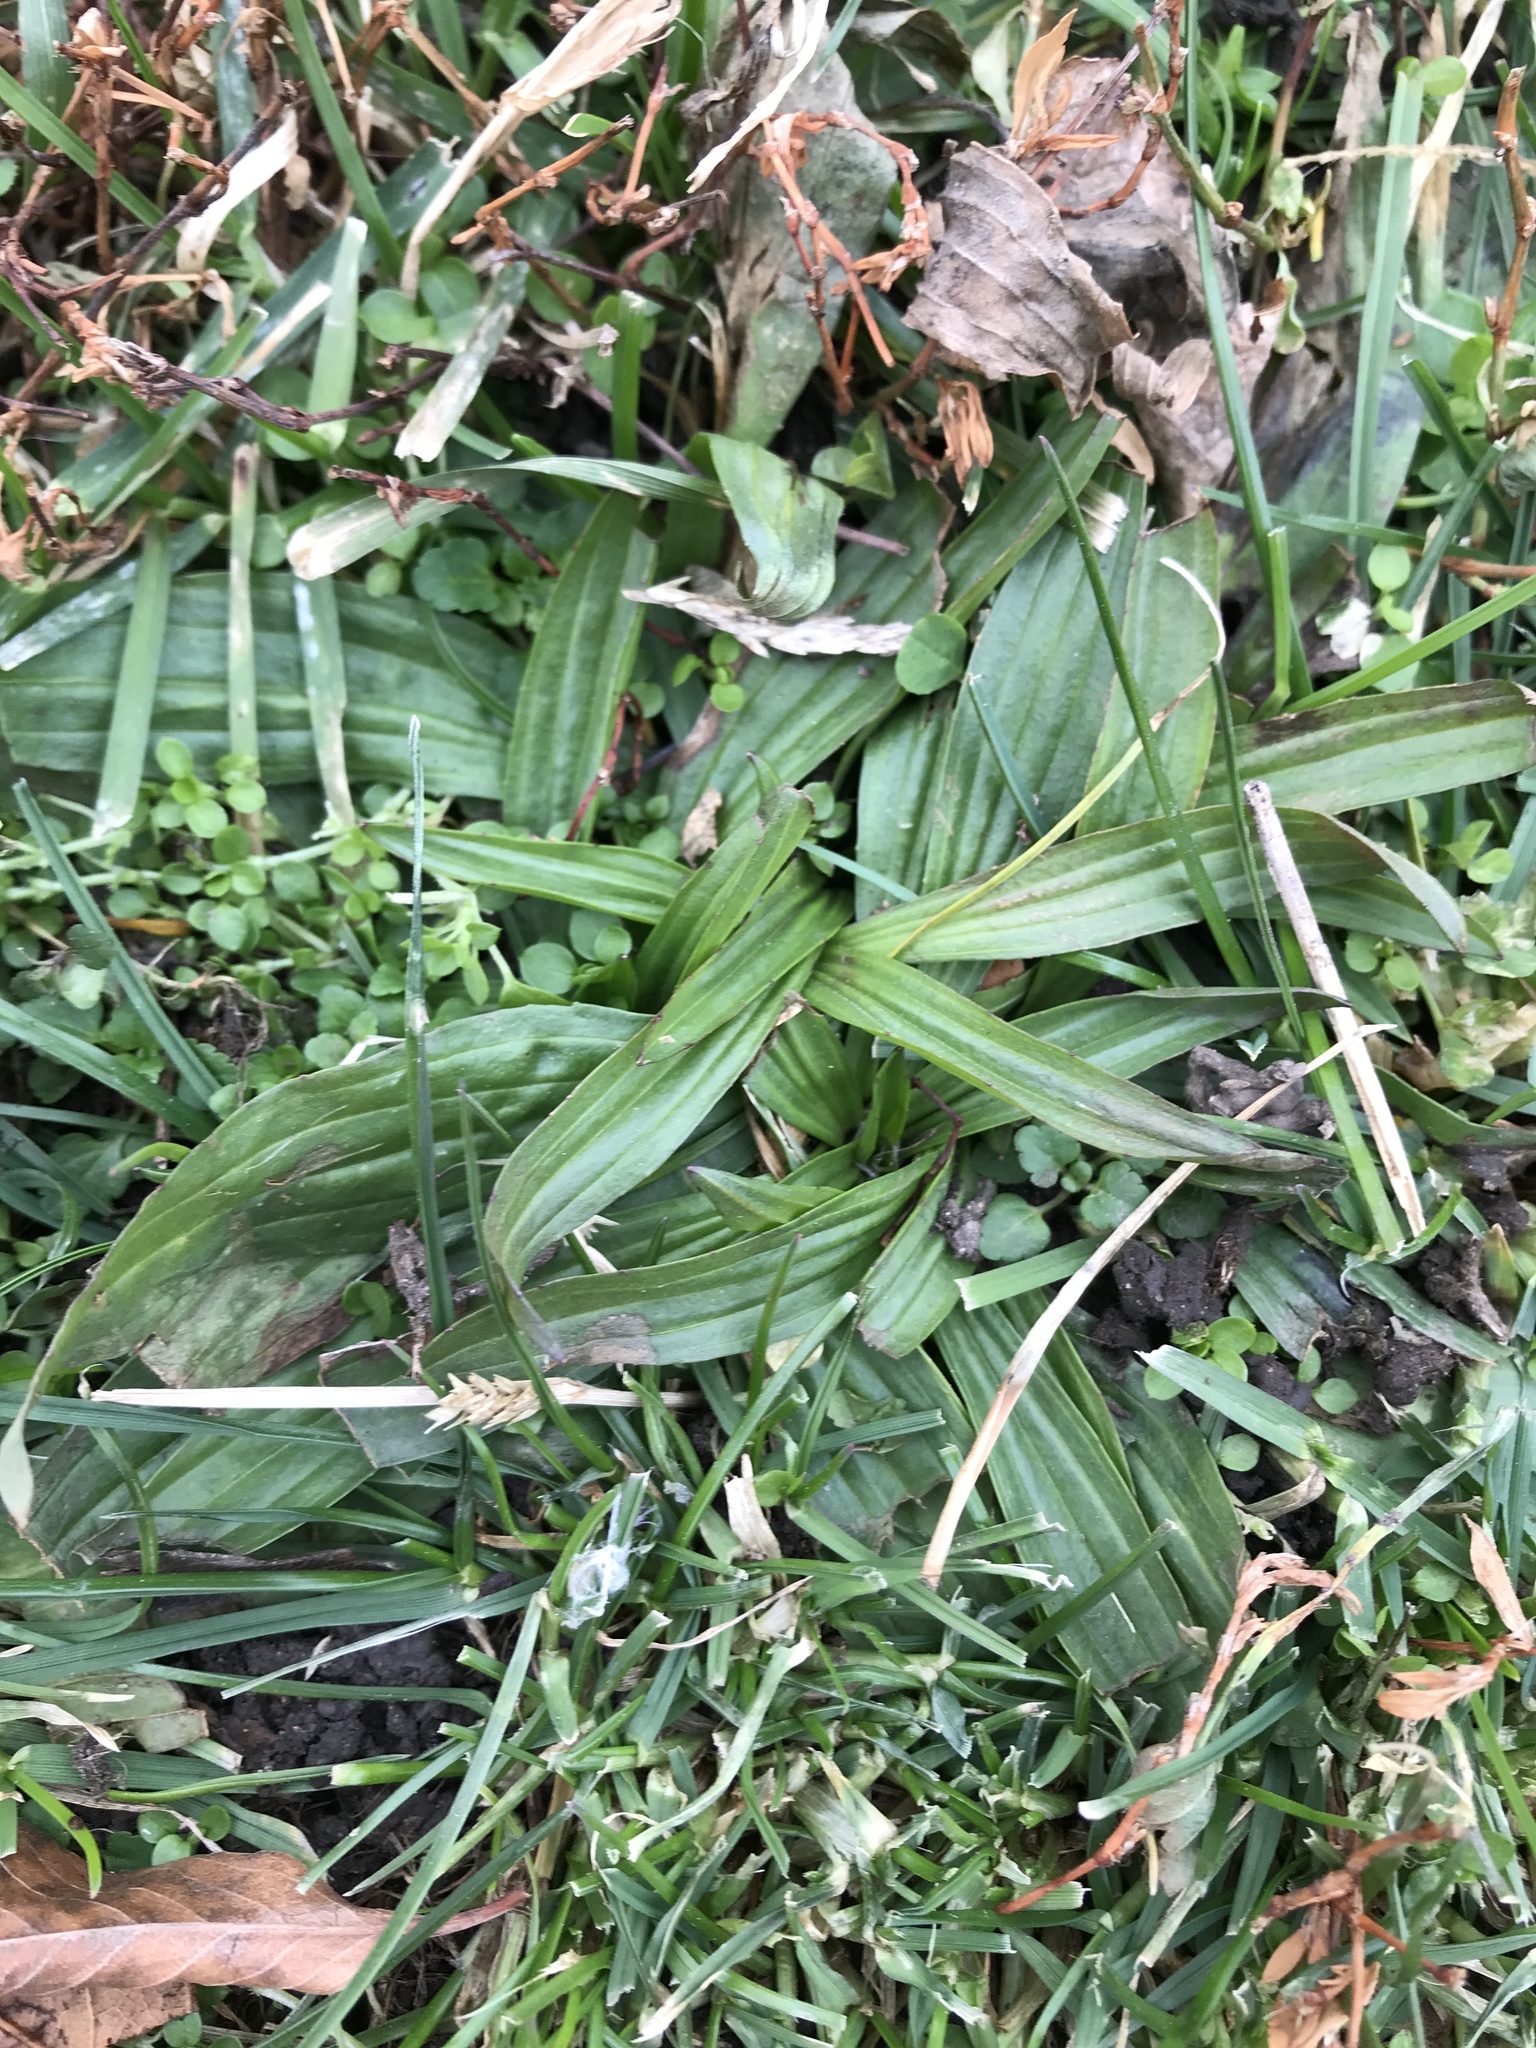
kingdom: Plantae
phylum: Tracheophyta
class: Magnoliopsida
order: Lamiales
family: Plantaginaceae
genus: Plantago
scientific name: Plantago lanceolata
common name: Ribwort plantain
